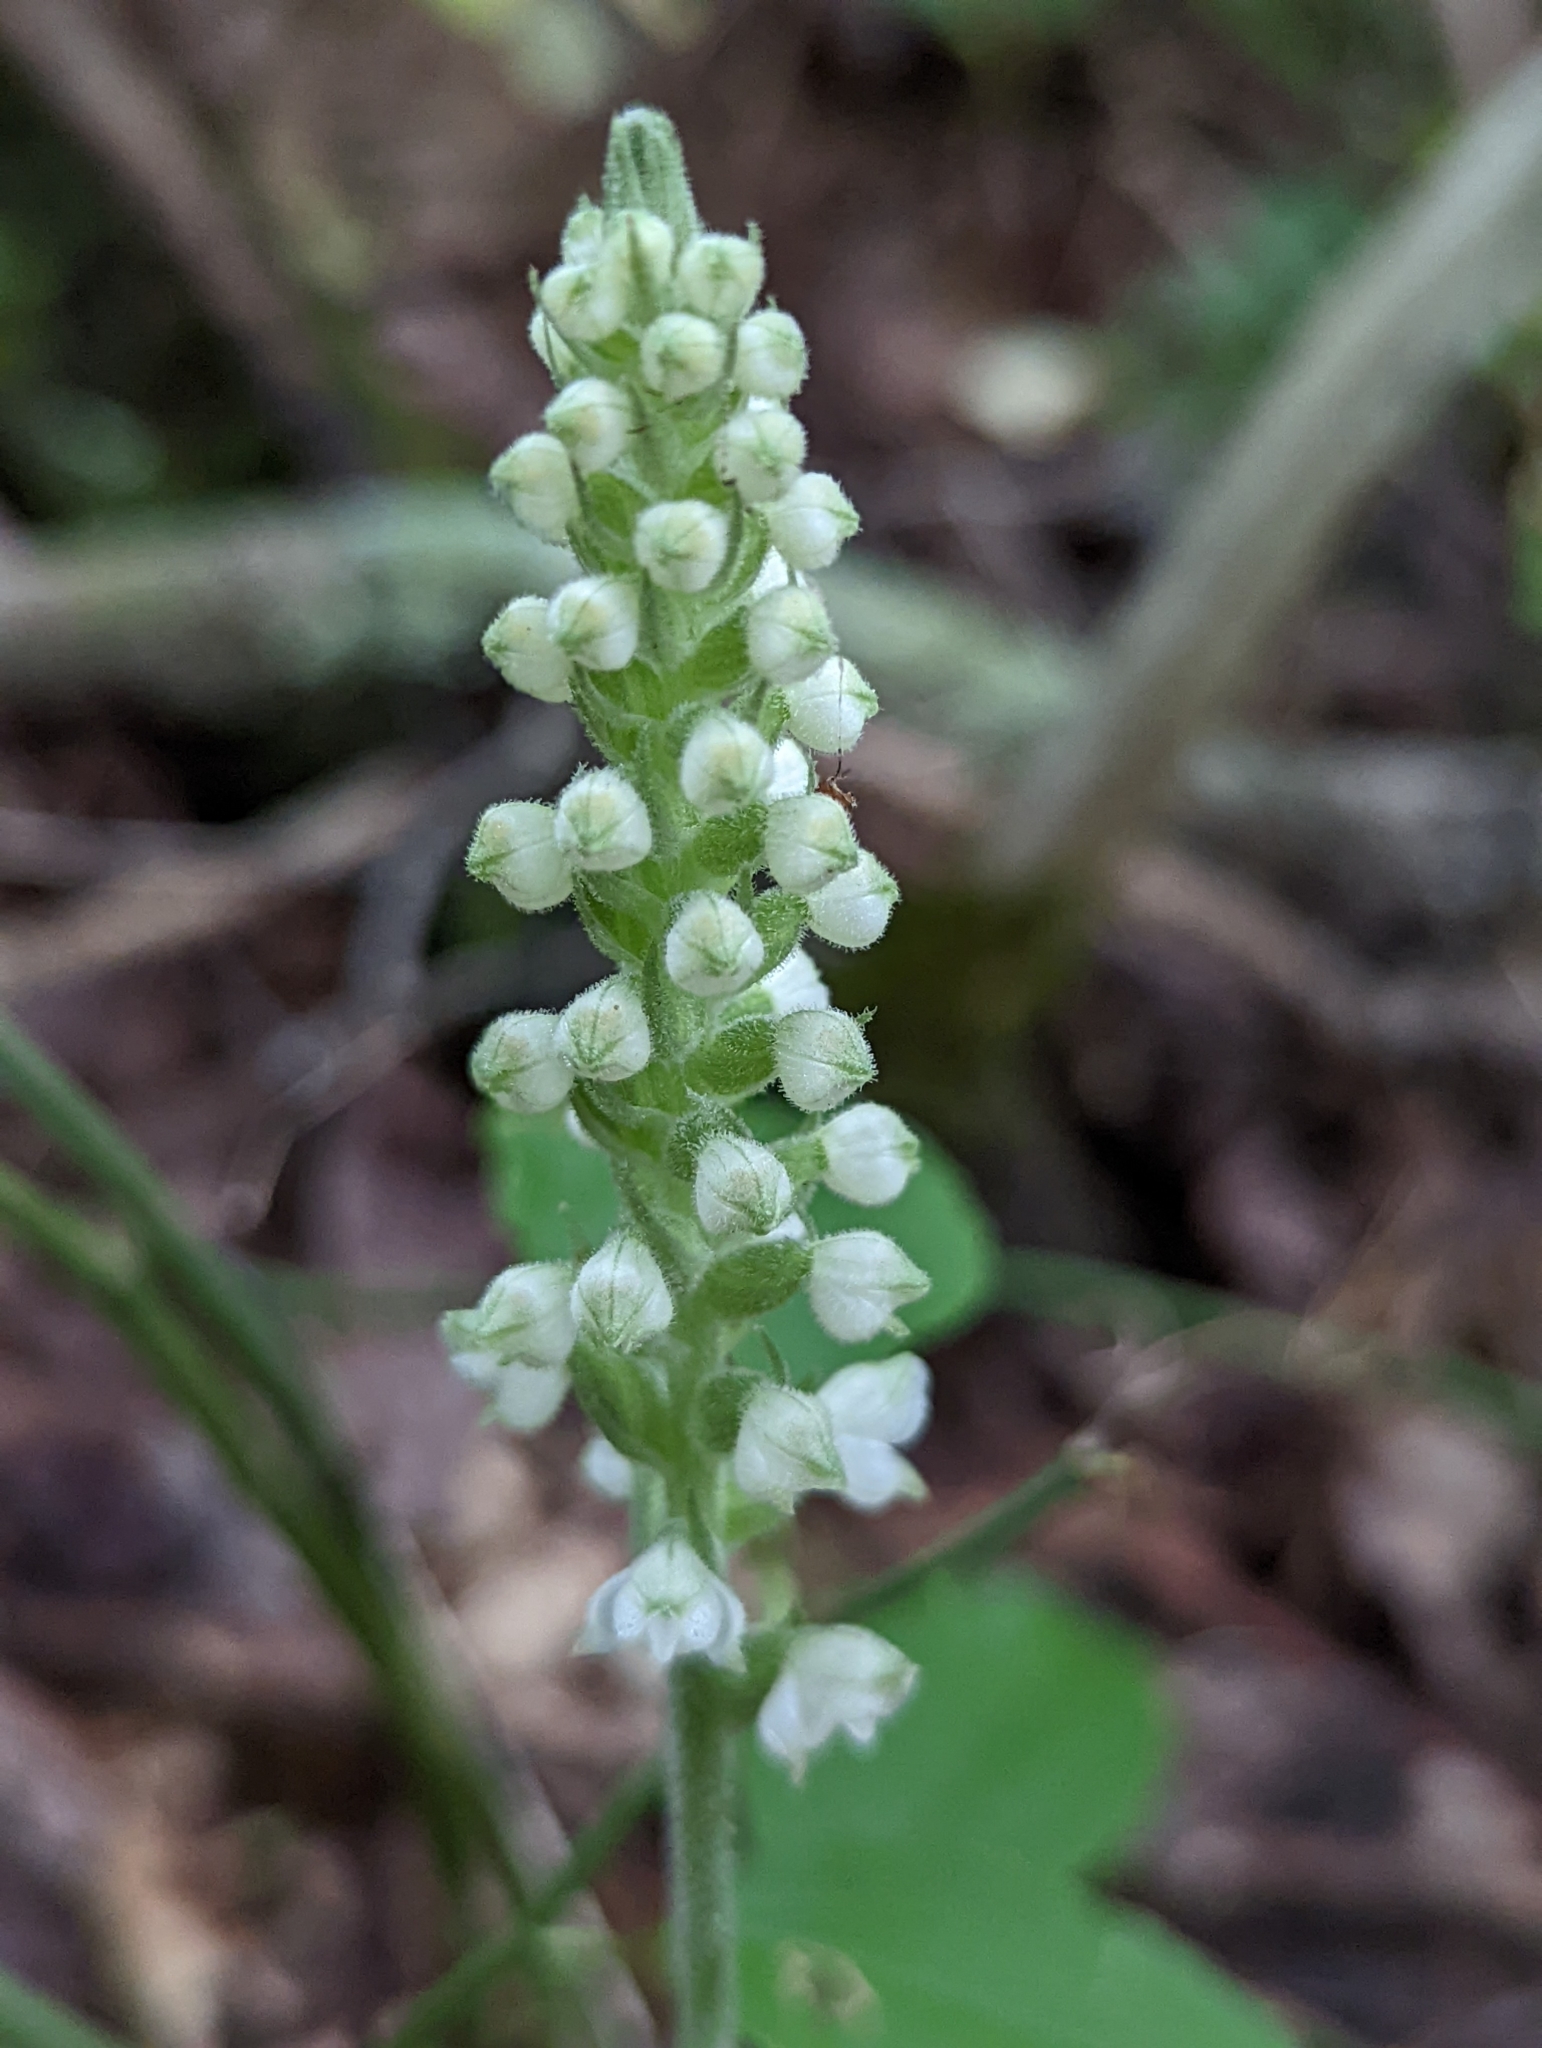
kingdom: Plantae
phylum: Tracheophyta
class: Liliopsida
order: Asparagales
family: Orchidaceae
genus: Goodyera
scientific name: Goodyera pubescens
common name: Downy rattlesnake-plantain
